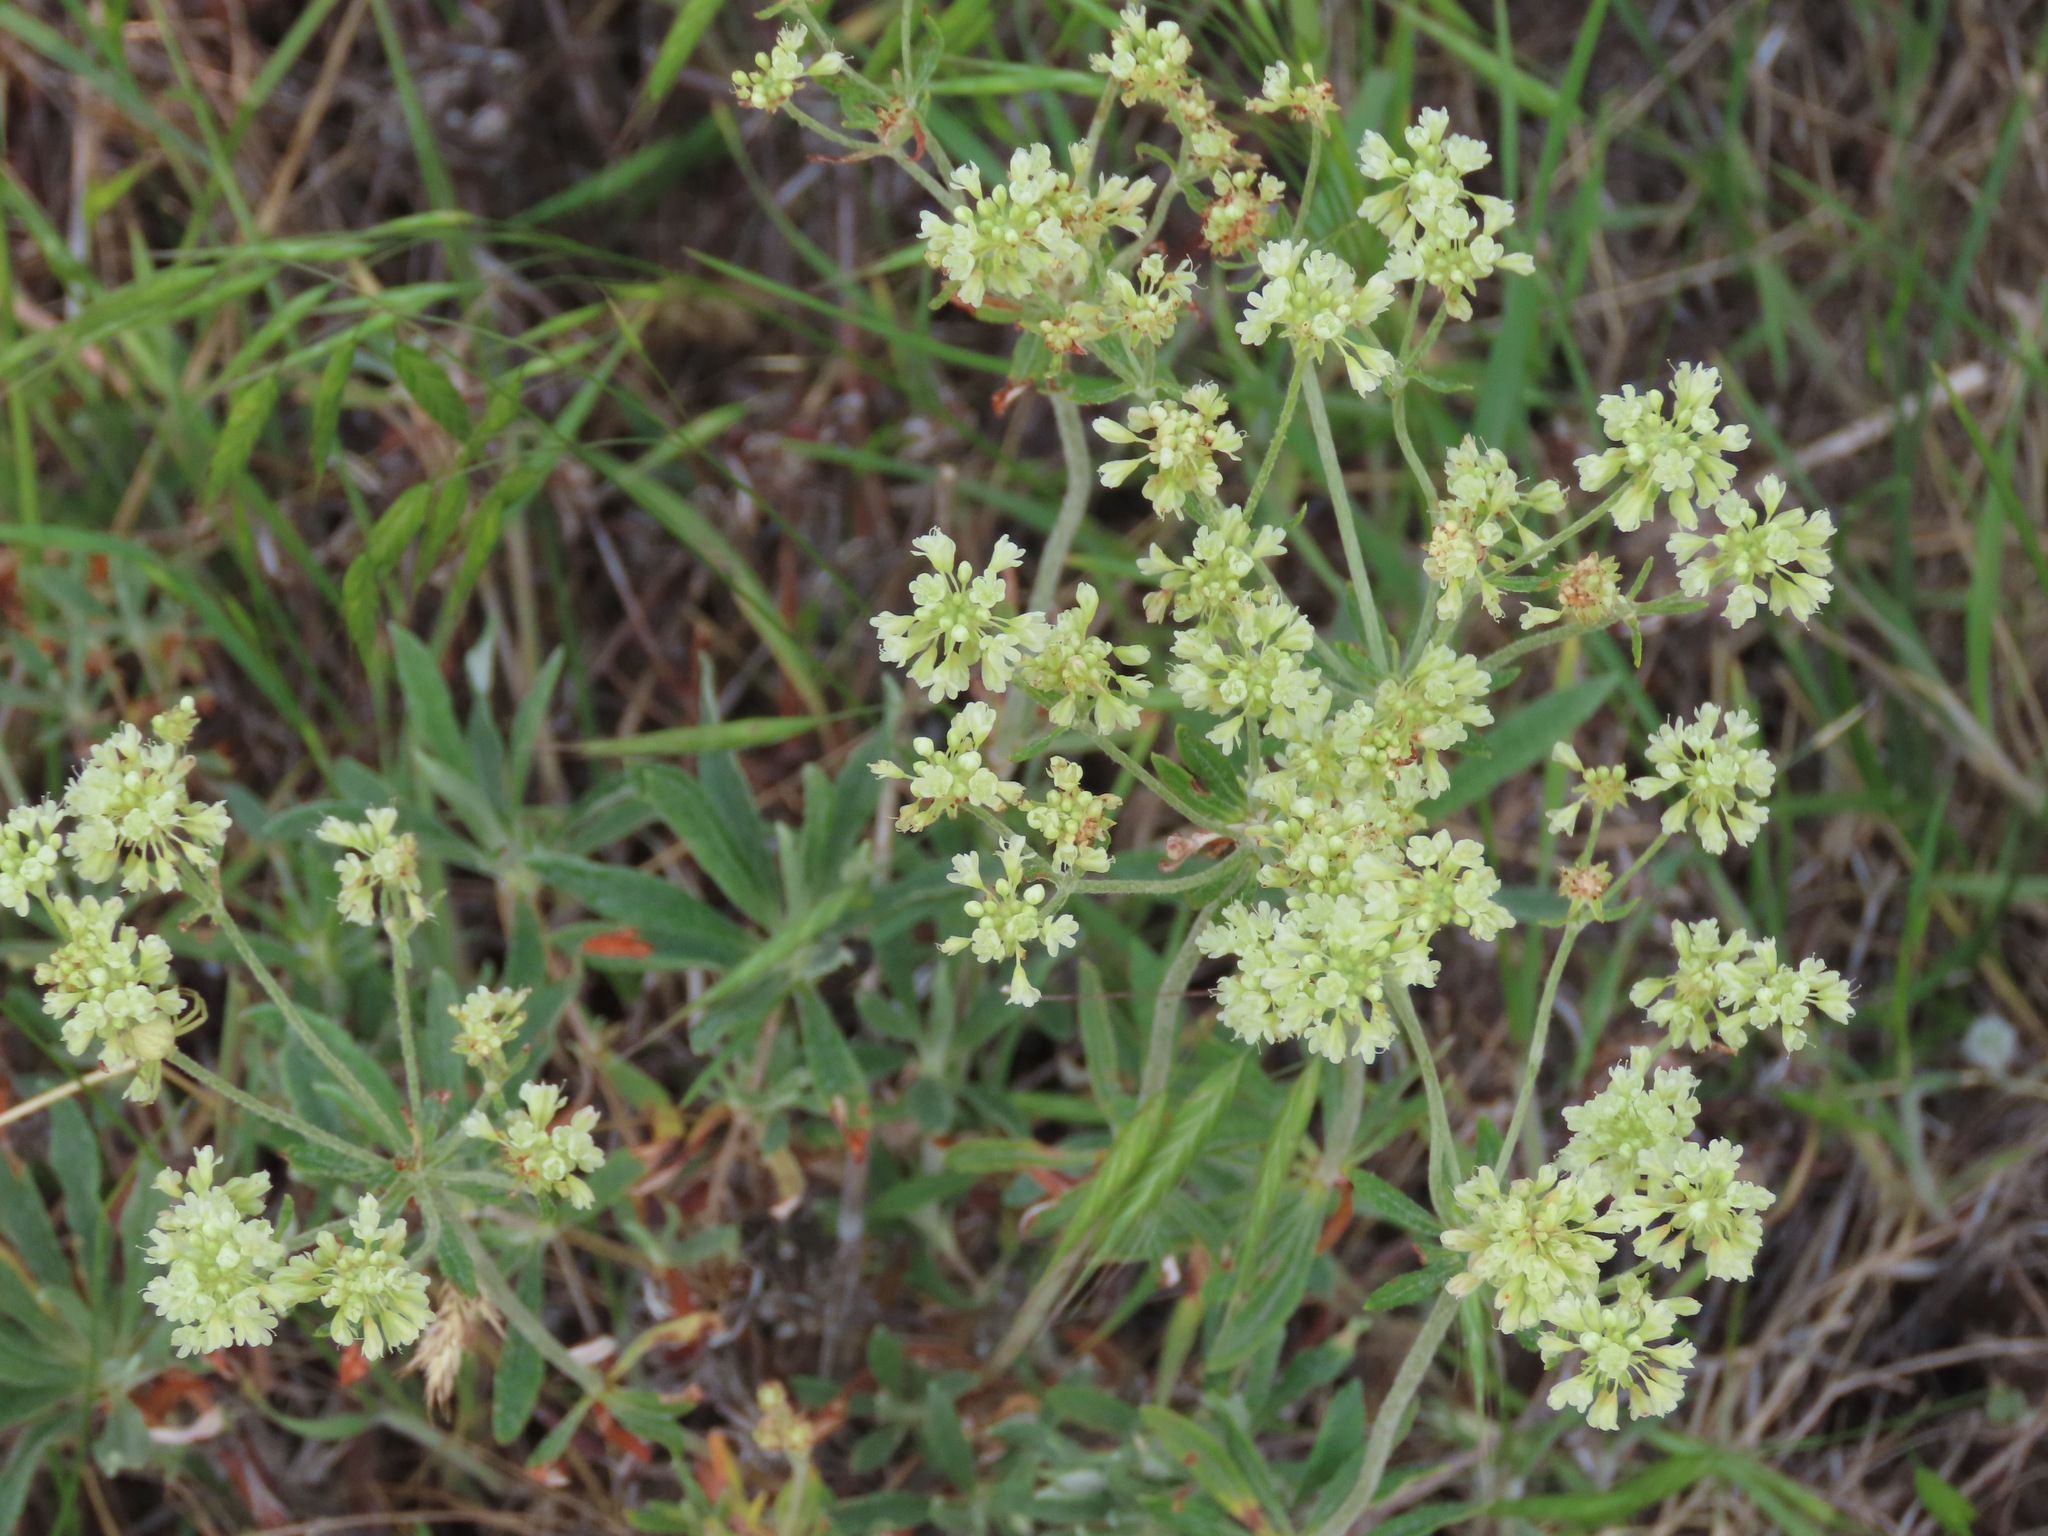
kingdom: Plantae
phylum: Tracheophyta
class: Magnoliopsida
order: Caryophyllales
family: Polygonaceae
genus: Eriogonum
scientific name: Eriogonum heracleoides
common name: Wyeth's buckwheat
